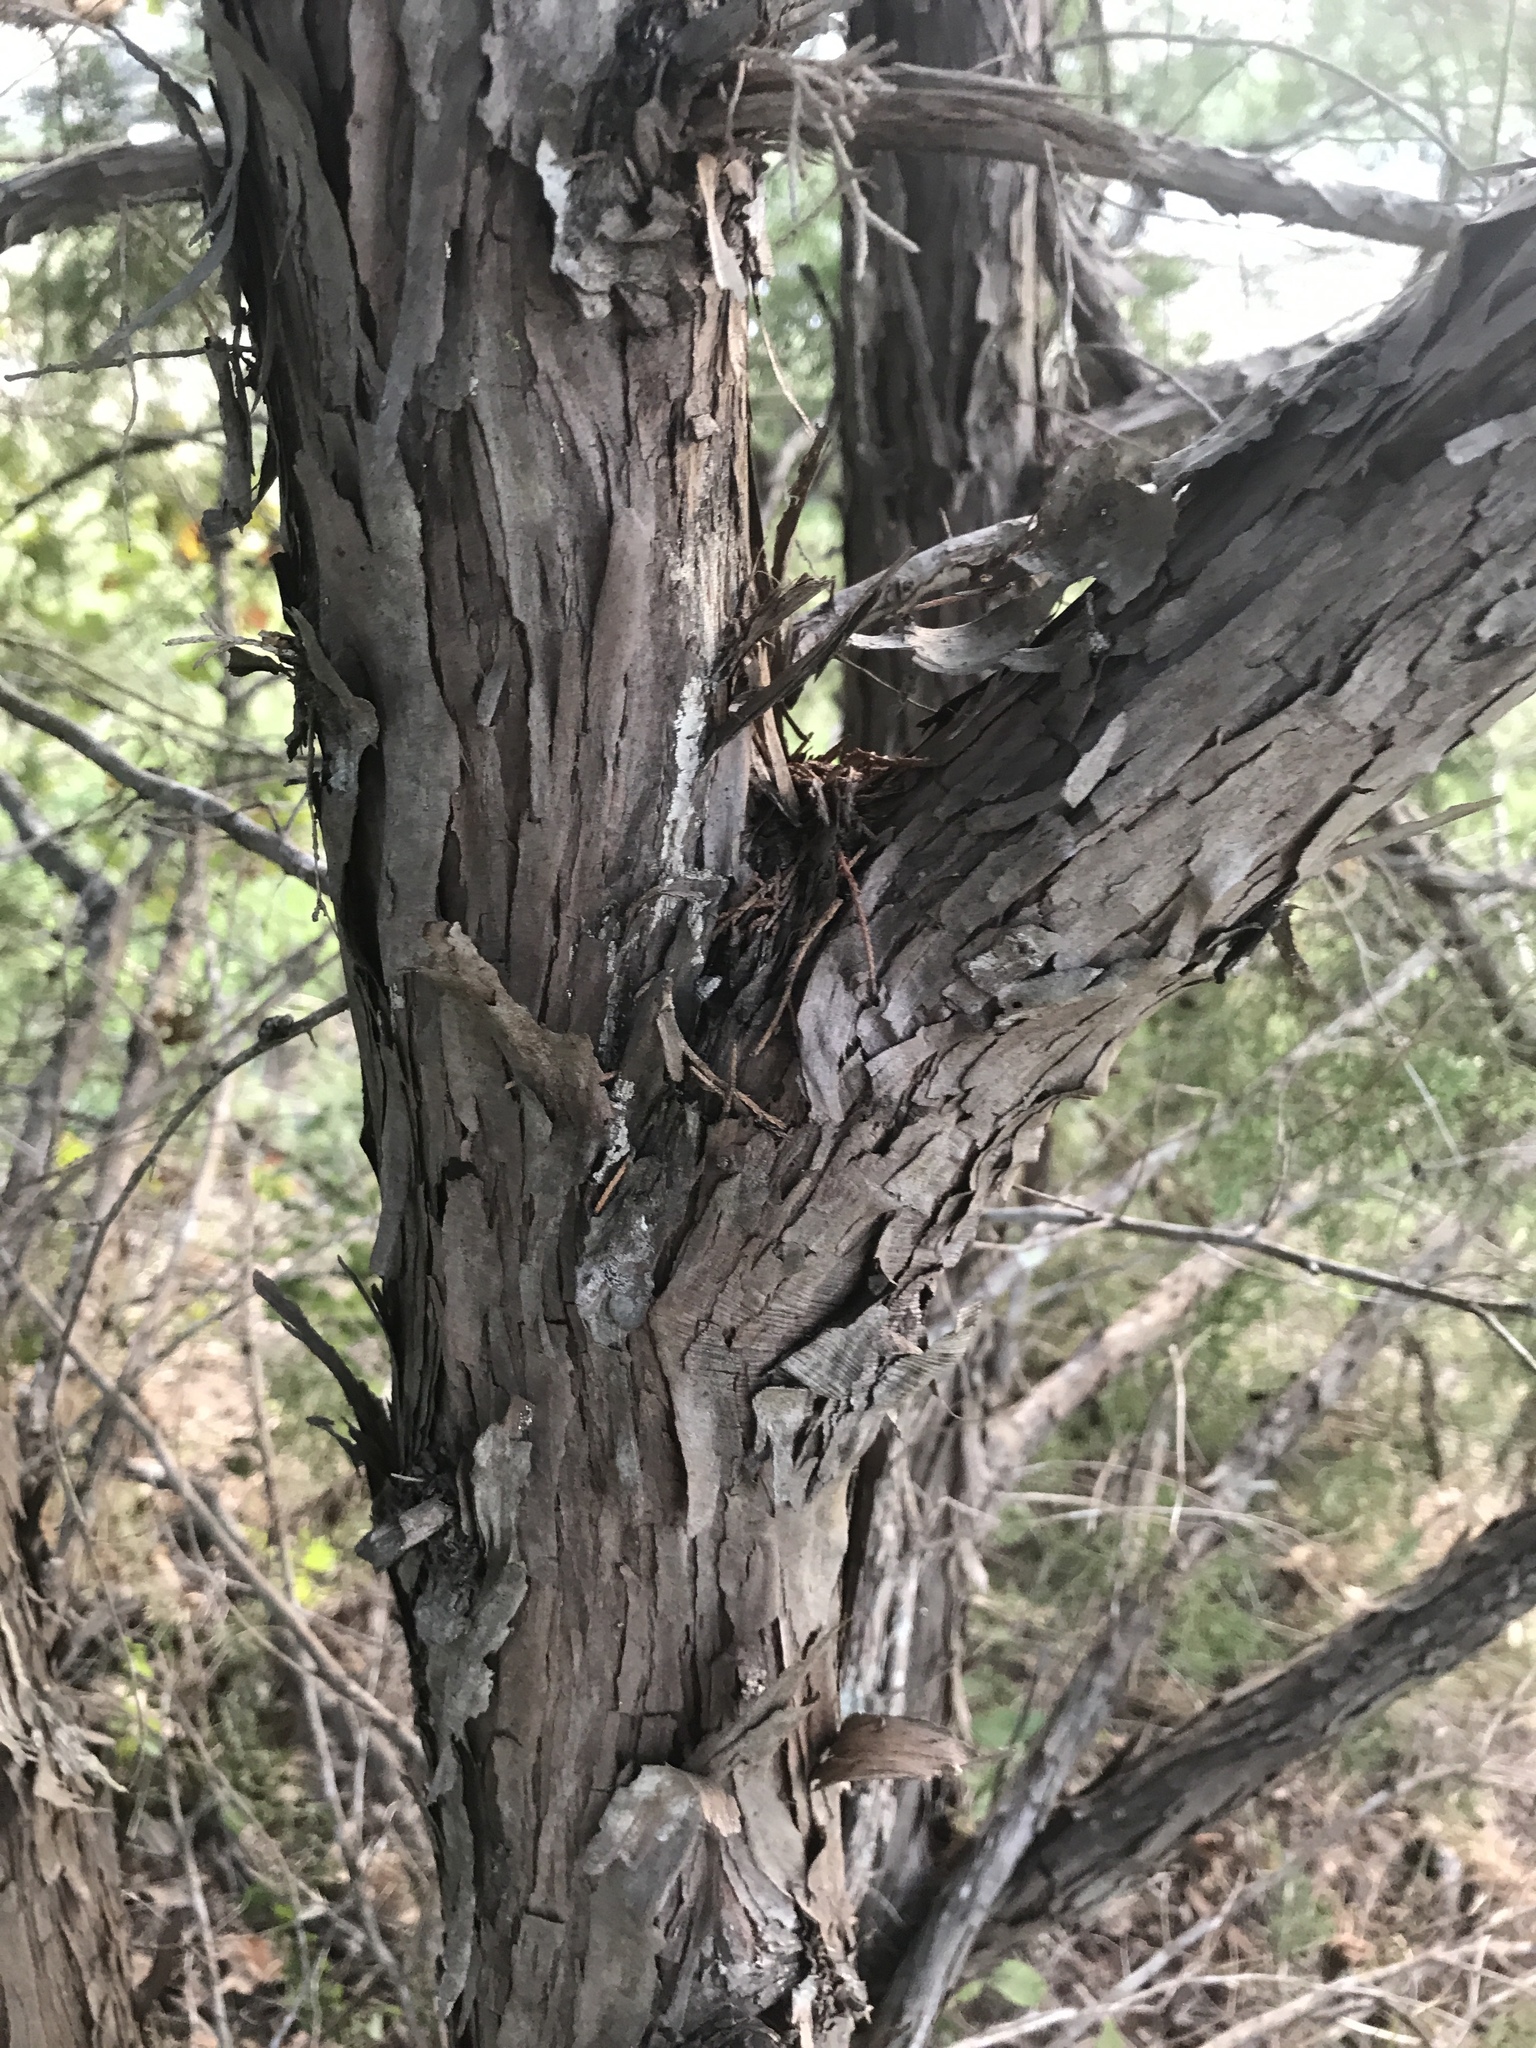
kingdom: Plantae
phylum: Tracheophyta
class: Pinopsida
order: Pinales
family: Cupressaceae
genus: Juniperus
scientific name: Juniperus virginiana
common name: Red juniper
